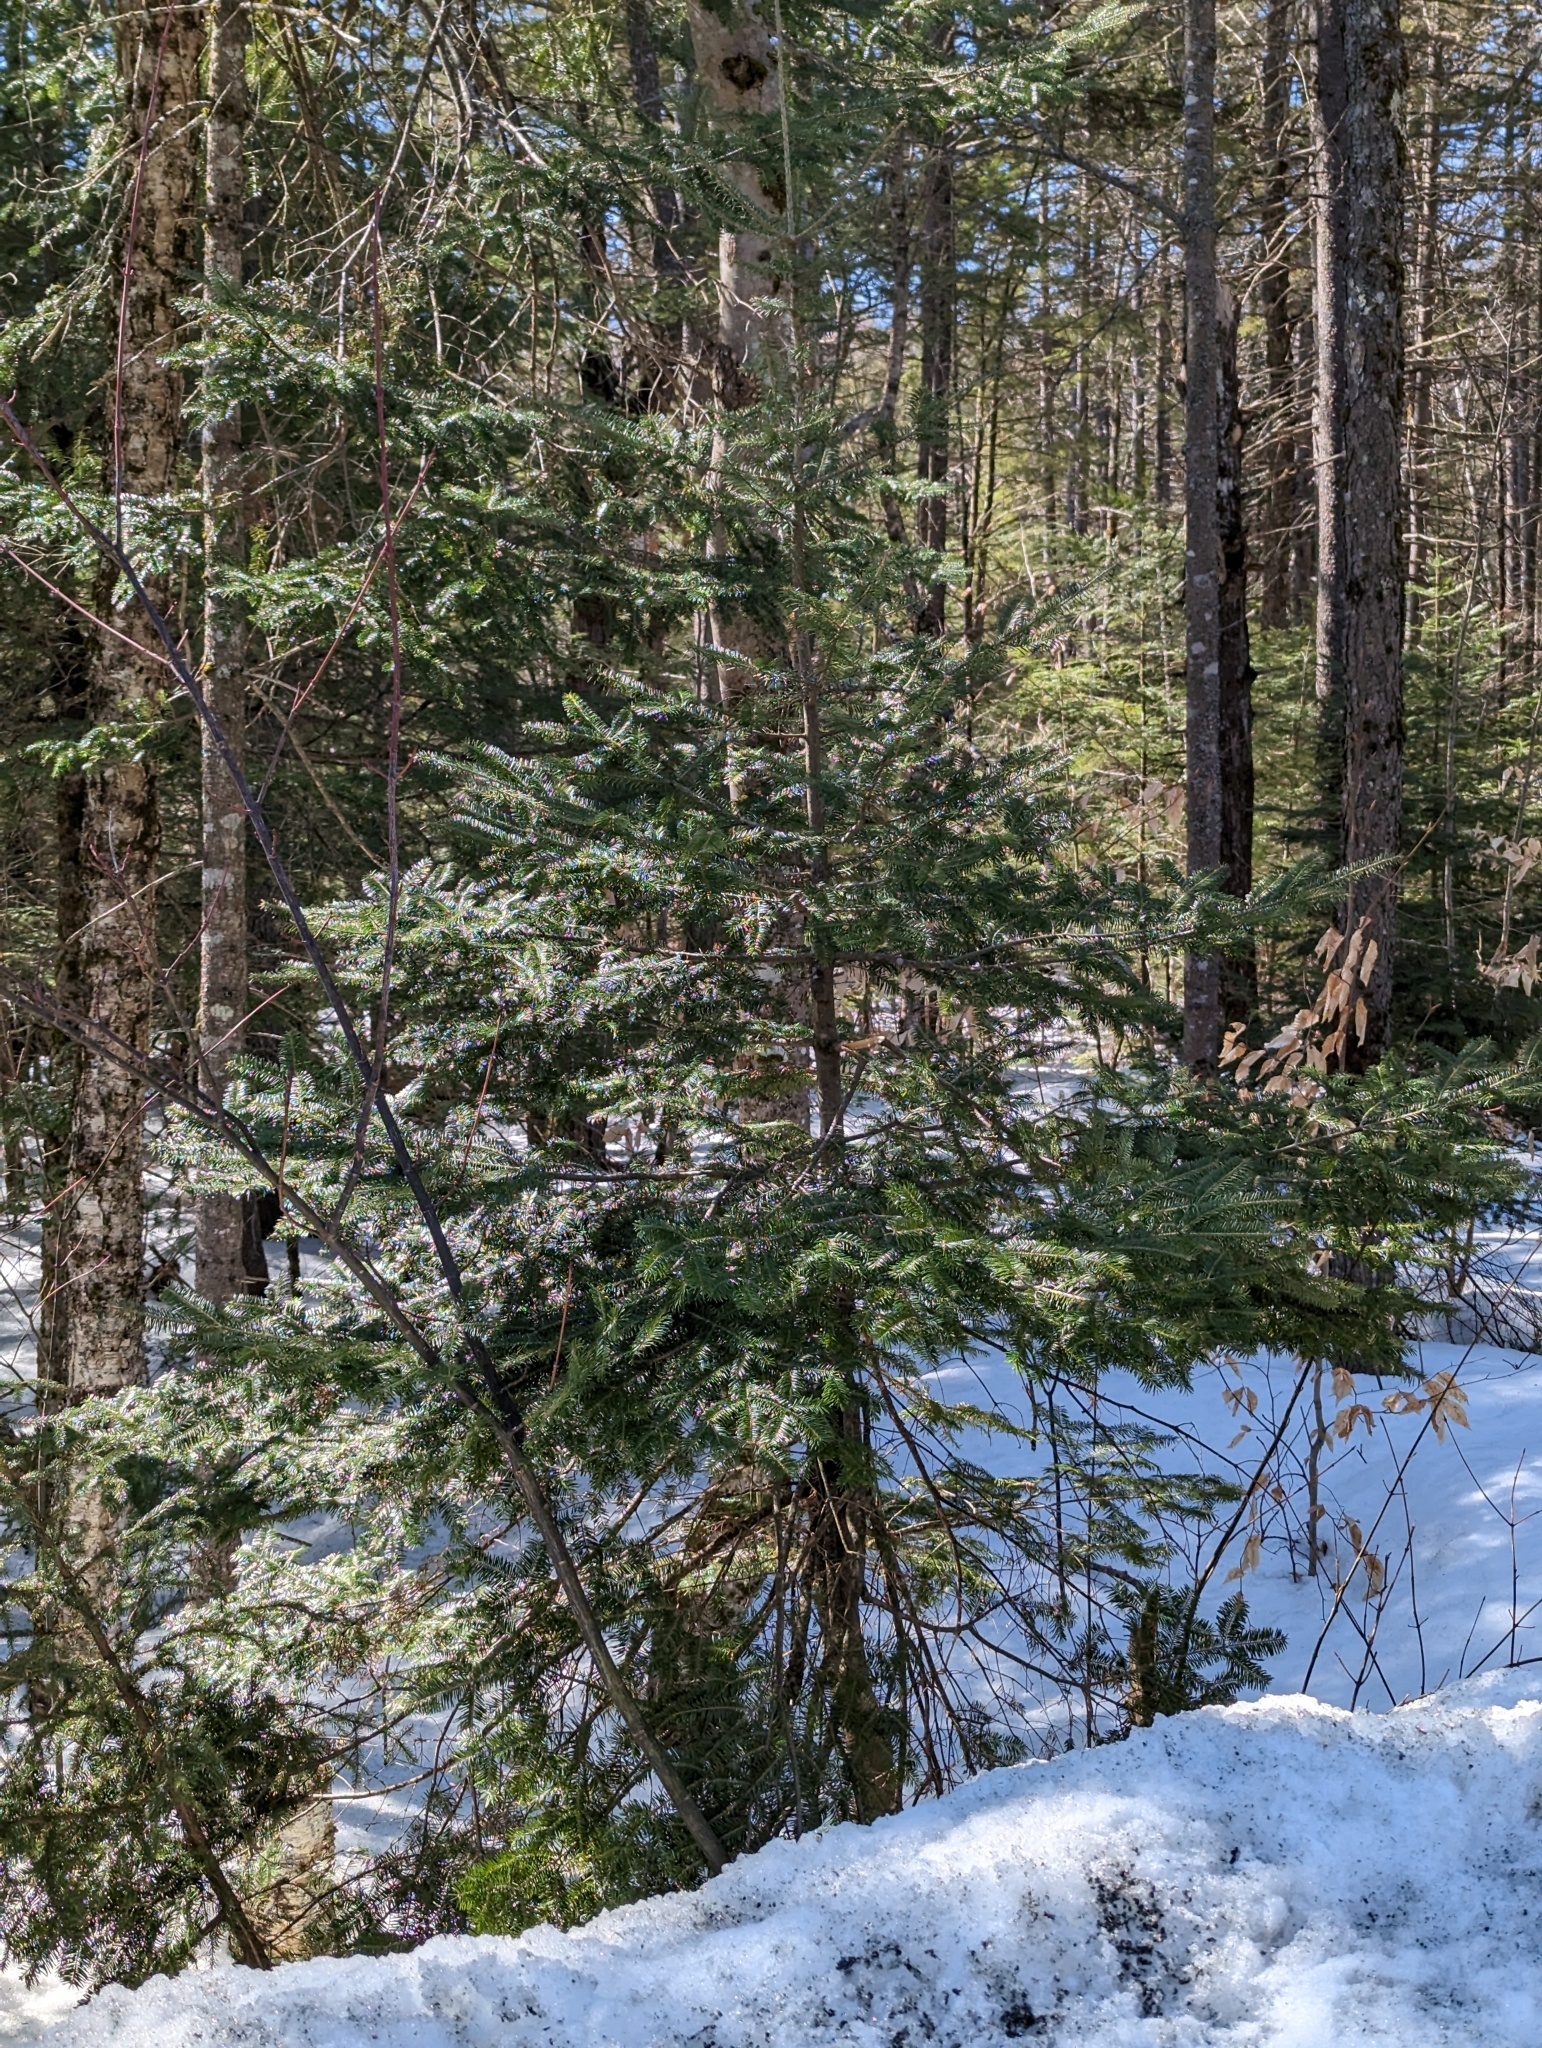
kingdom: Plantae
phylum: Tracheophyta
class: Pinopsida
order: Pinales
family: Pinaceae
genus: Abies
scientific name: Abies balsamea
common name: Balsam fir
